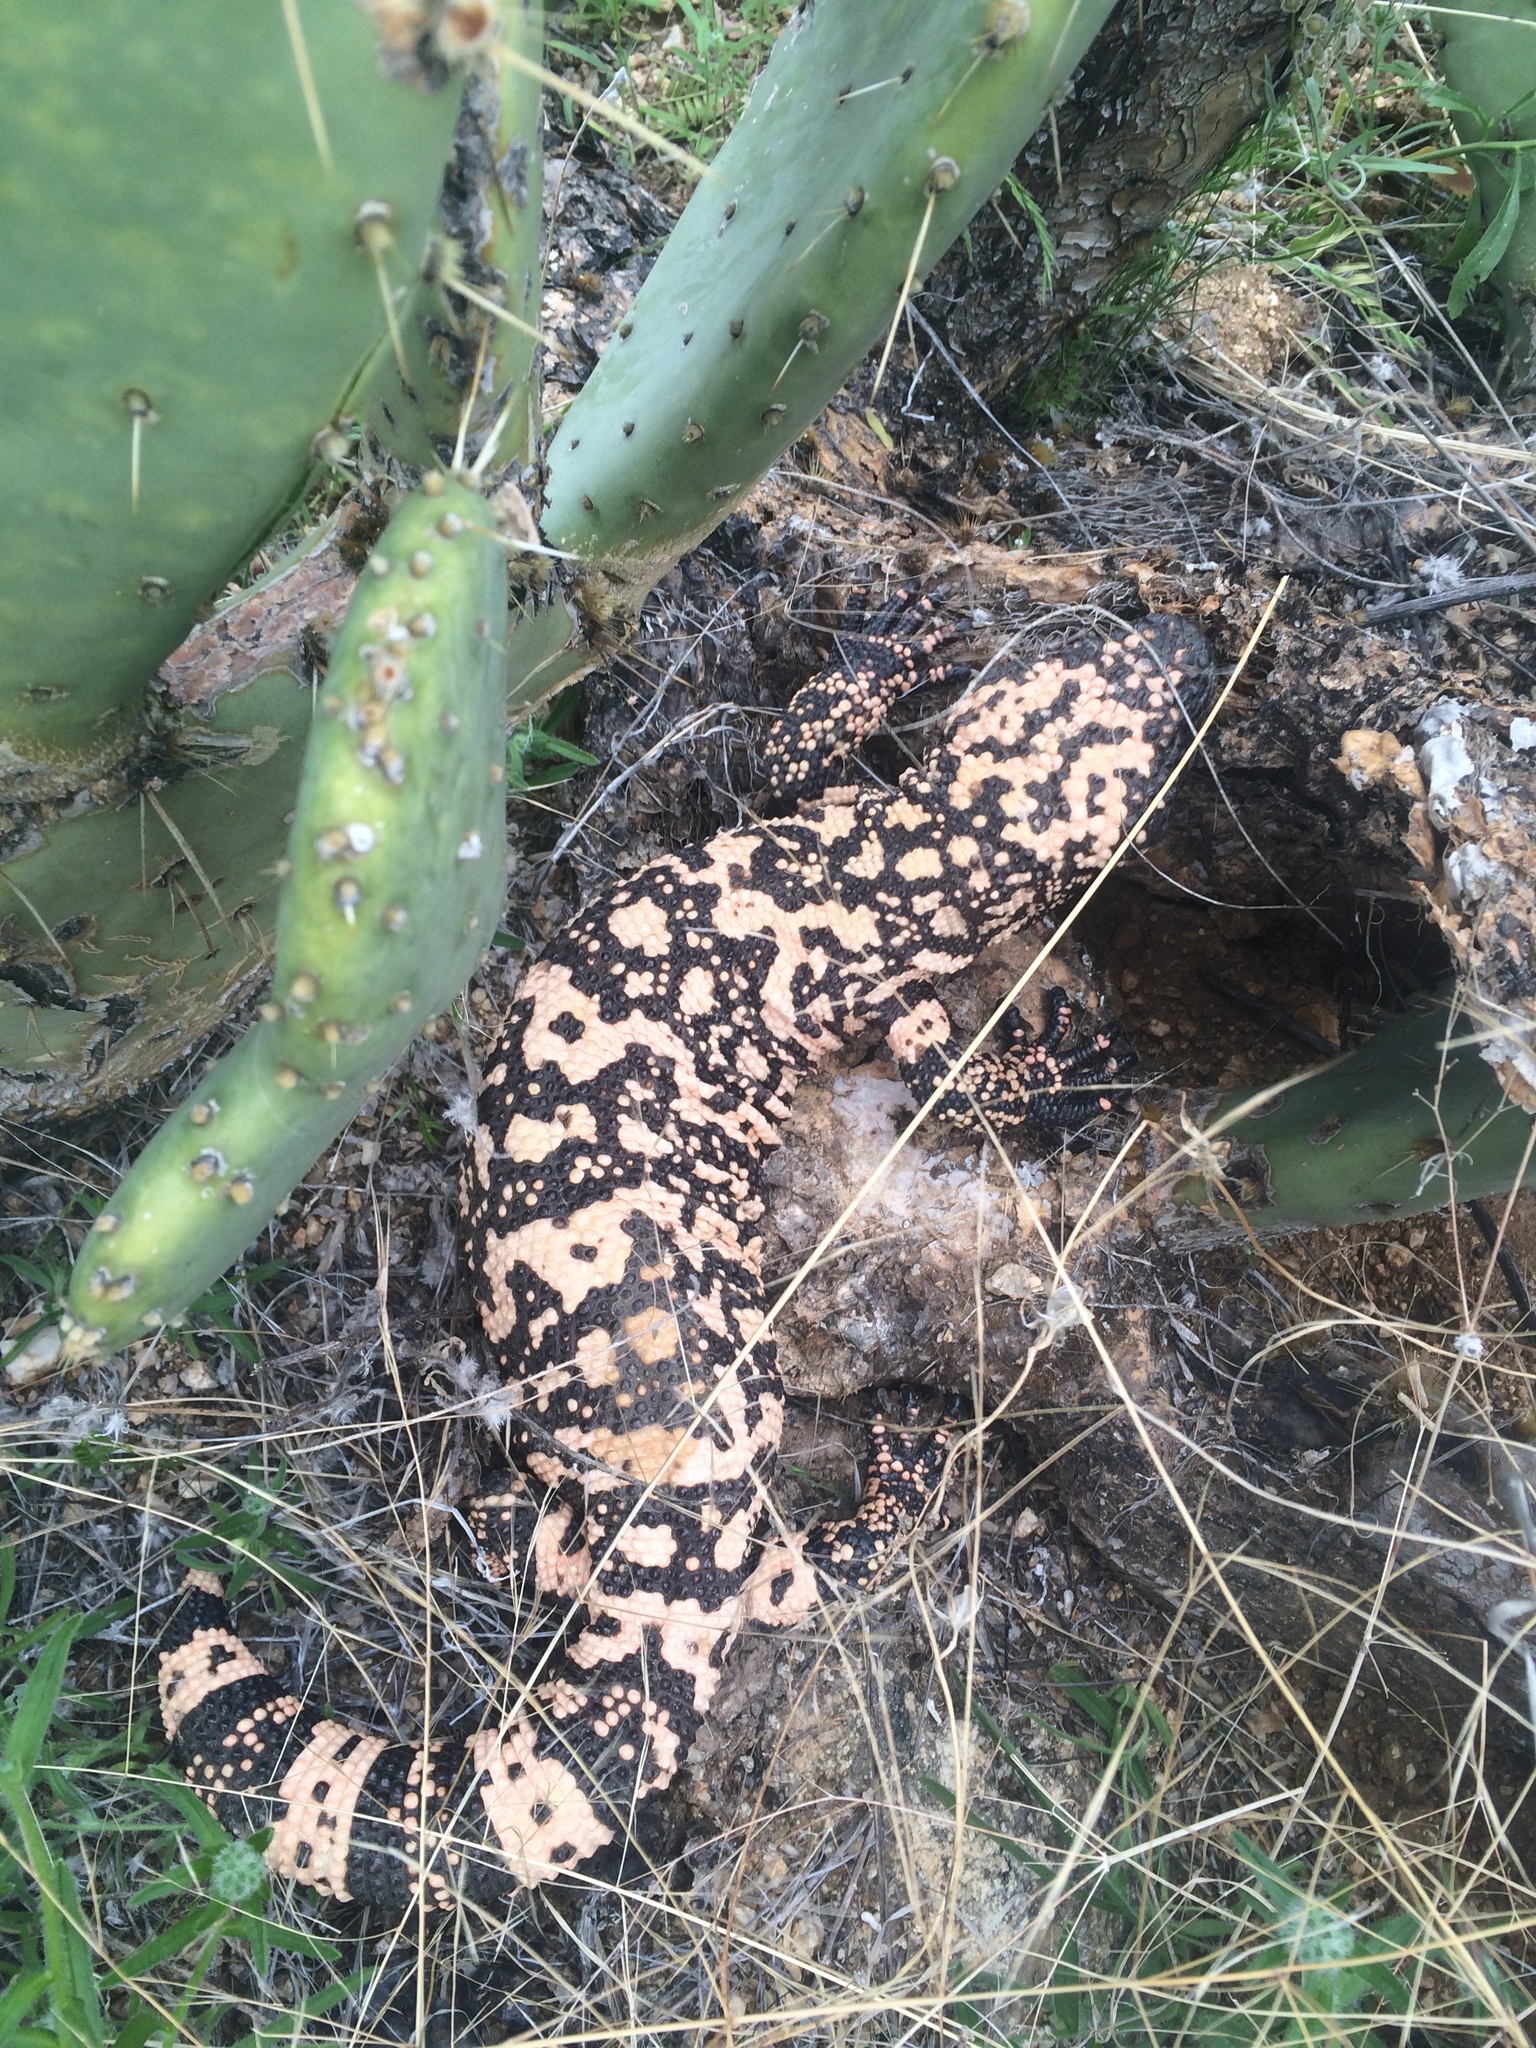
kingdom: Animalia
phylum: Chordata
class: Squamata
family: Helodermatidae
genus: Heloderma
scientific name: Heloderma suspectum
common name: Gila monster
